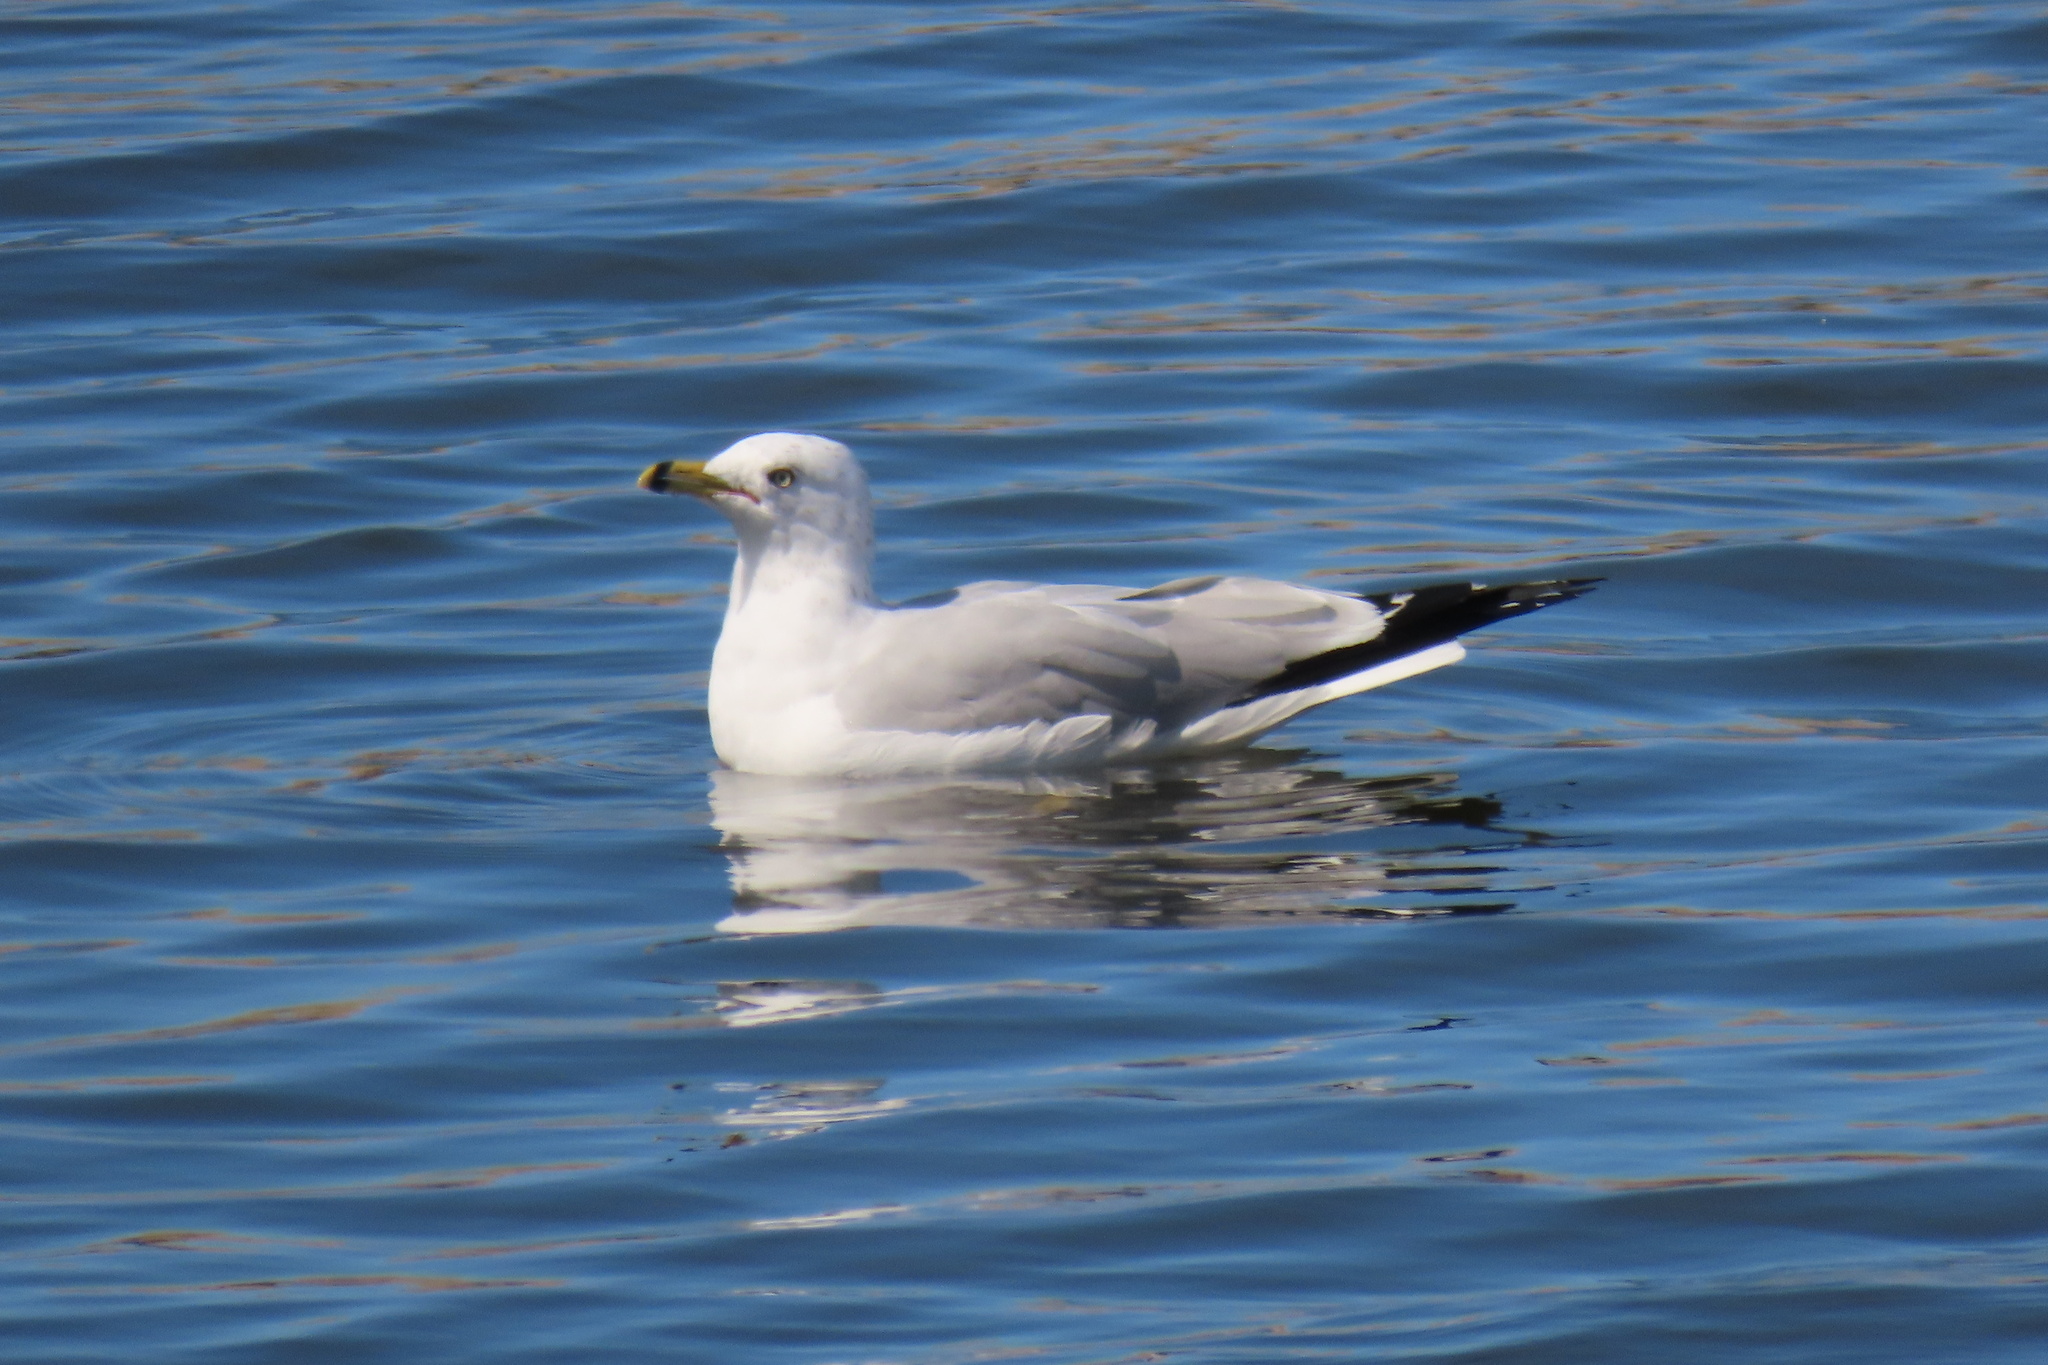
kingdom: Animalia
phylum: Chordata
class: Aves
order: Charadriiformes
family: Laridae
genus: Larus
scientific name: Larus delawarensis
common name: Ring-billed gull
